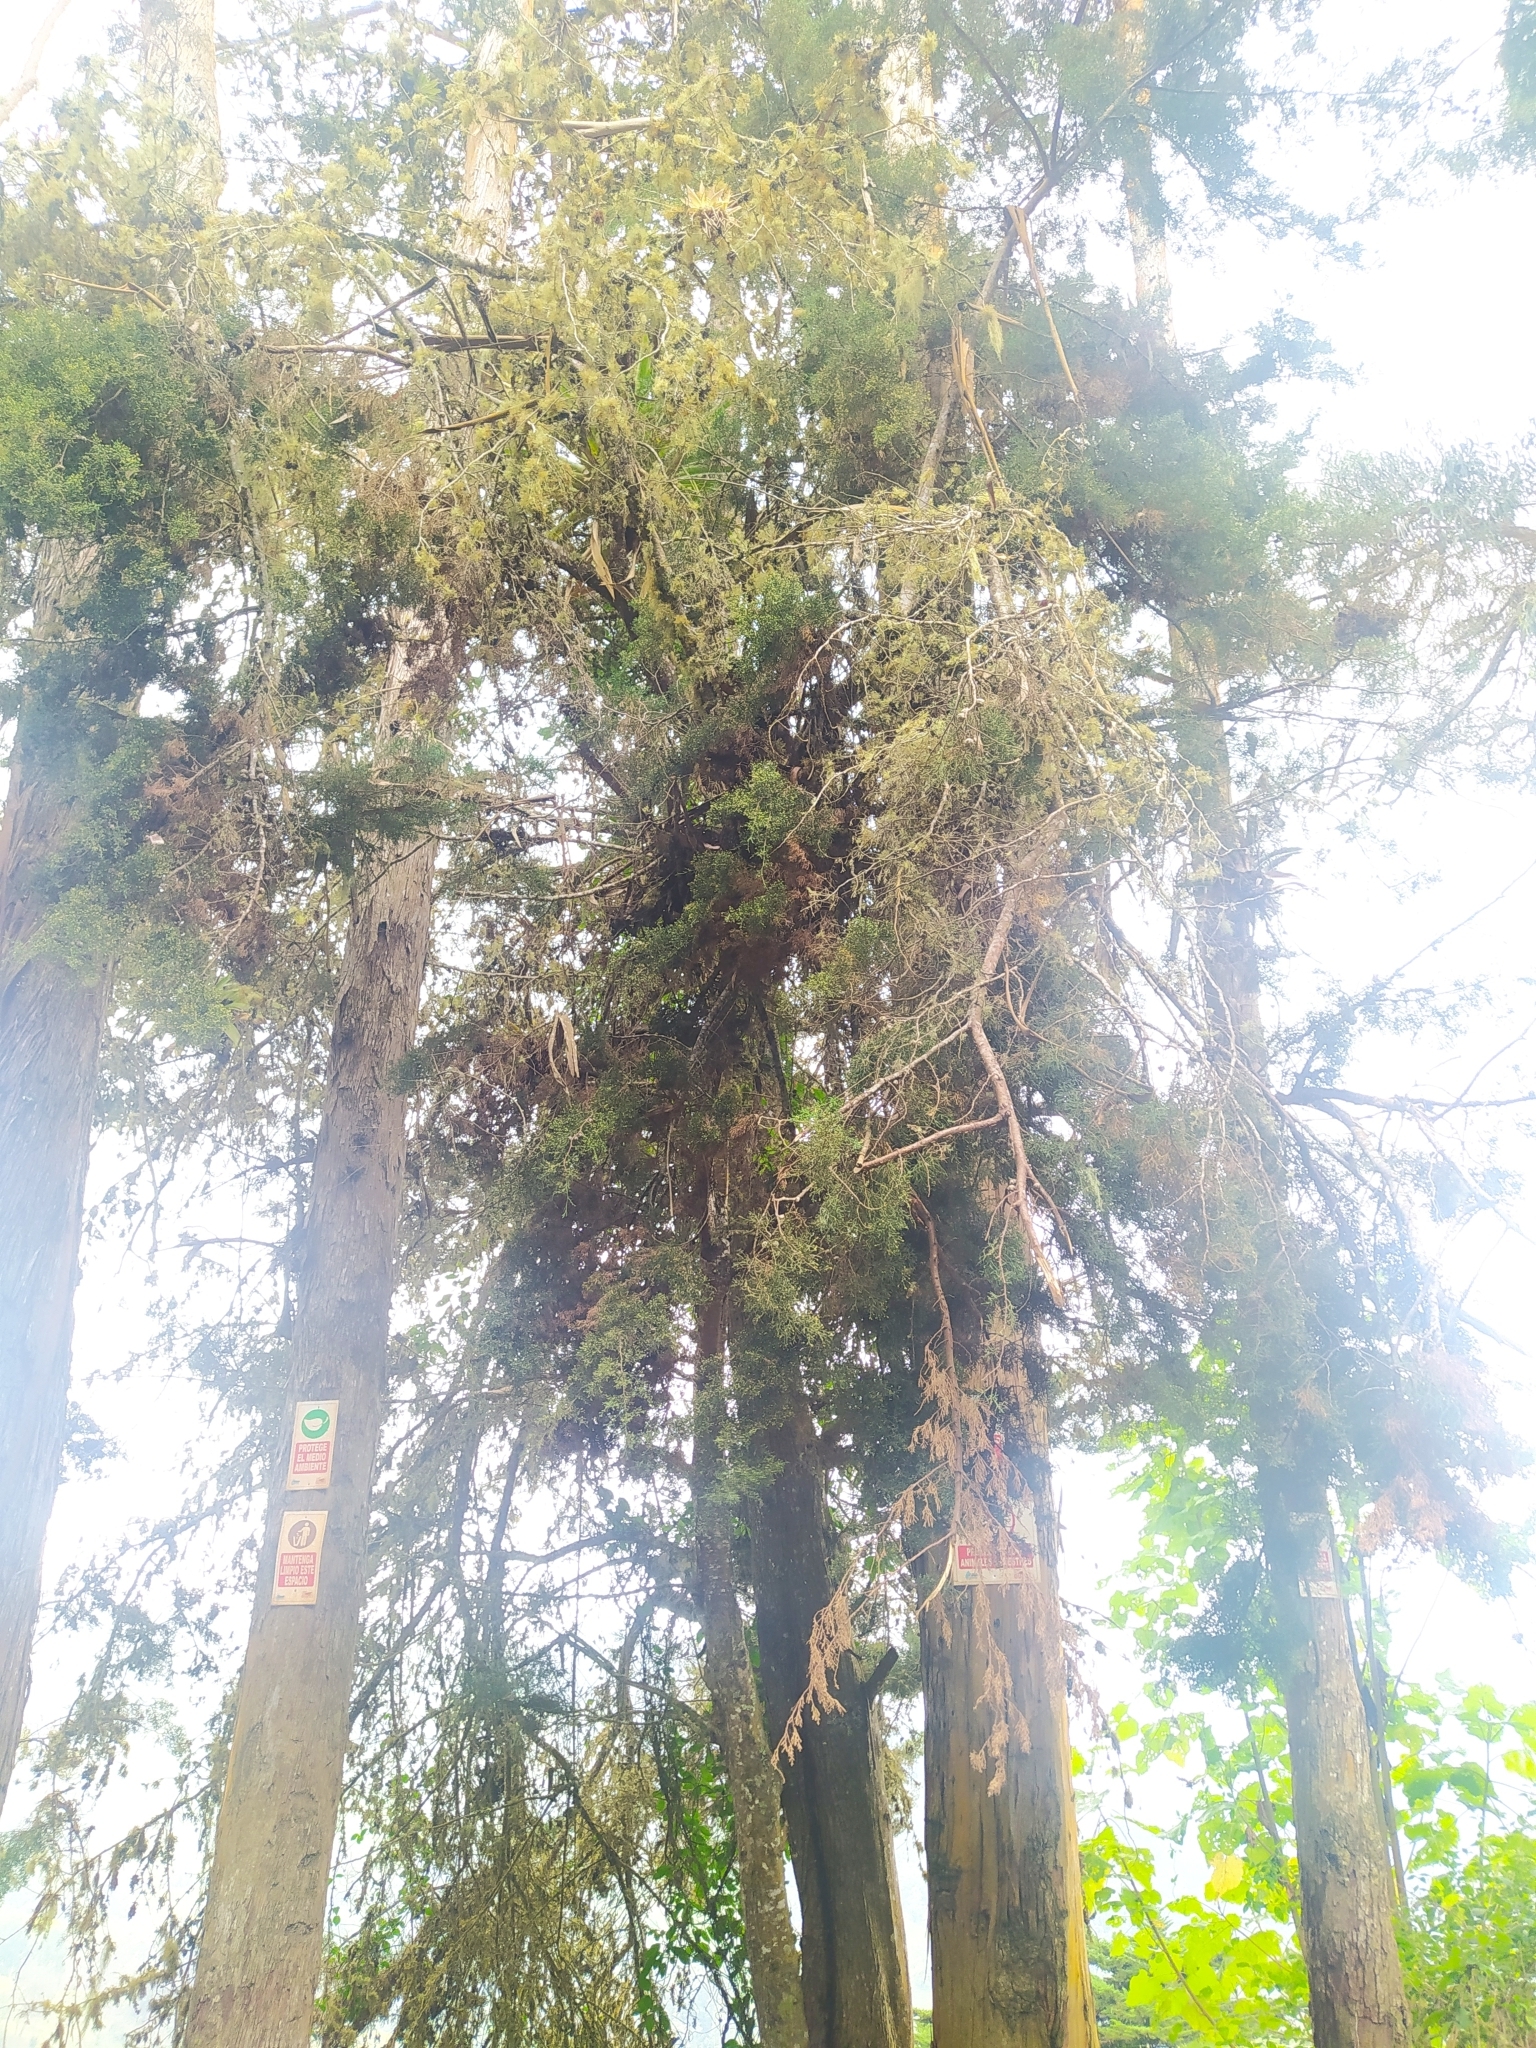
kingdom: Plantae
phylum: Tracheophyta
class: Pinopsida
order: Pinales
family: Cupressaceae
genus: Cupressus
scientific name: Cupressus lusitanica
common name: Mexican cypress
